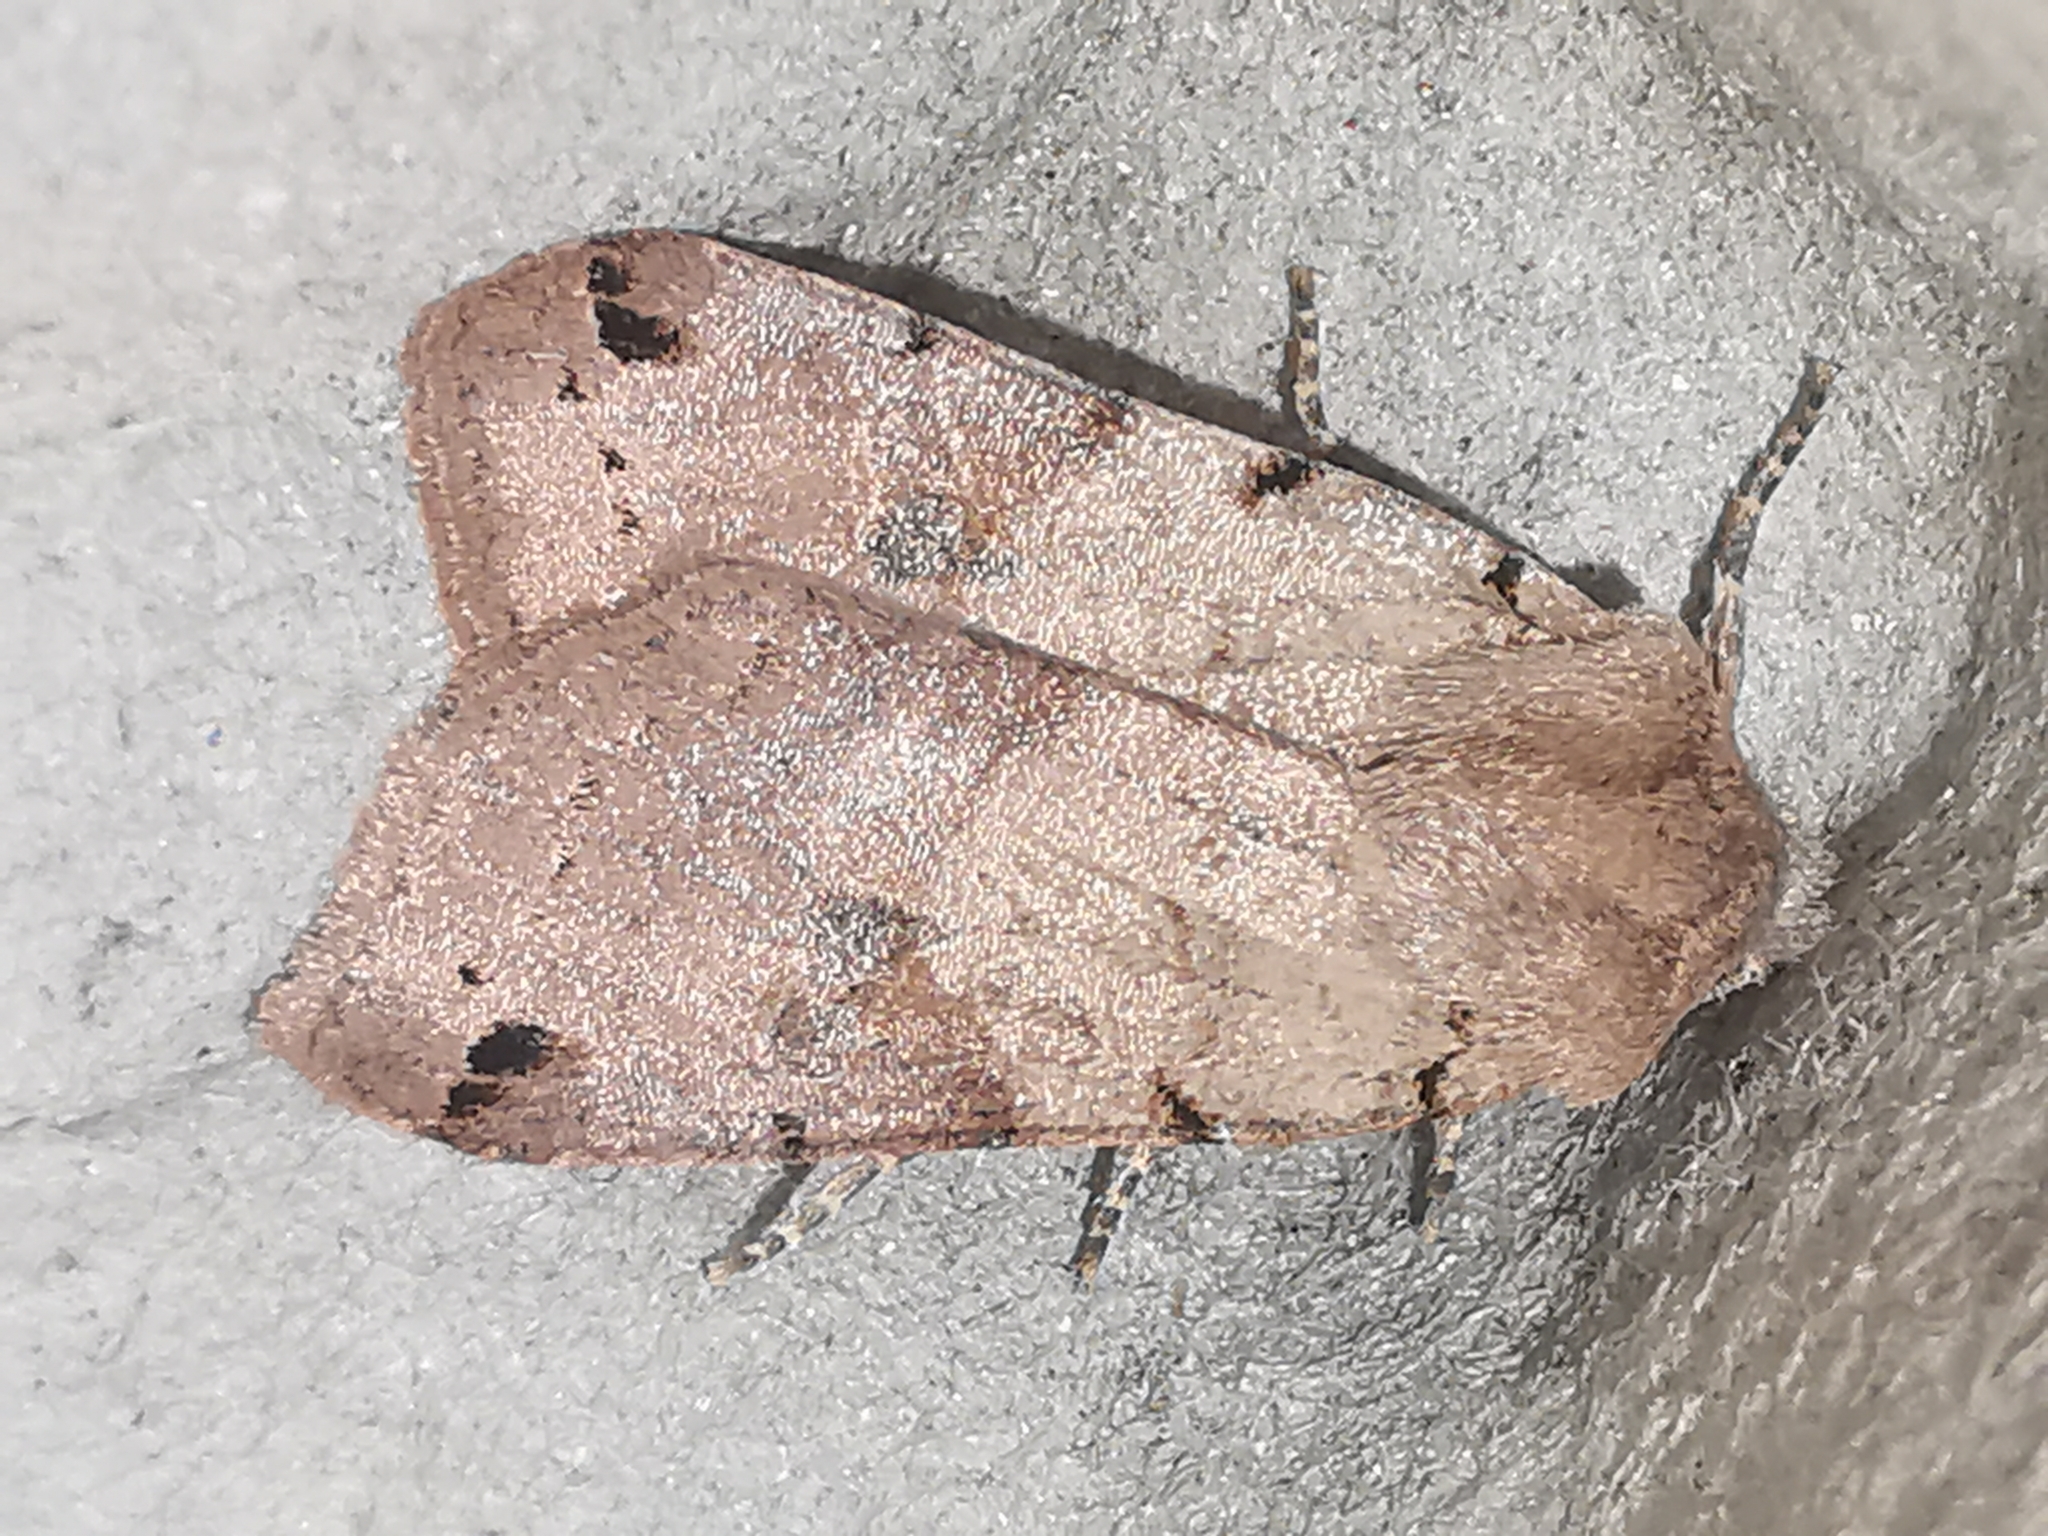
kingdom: Animalia
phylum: Arthropoda
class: Insecta
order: Lepidoptera
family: Noctuidae
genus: Agrochola
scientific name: Agrochola litura
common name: Brown-spot pinion
